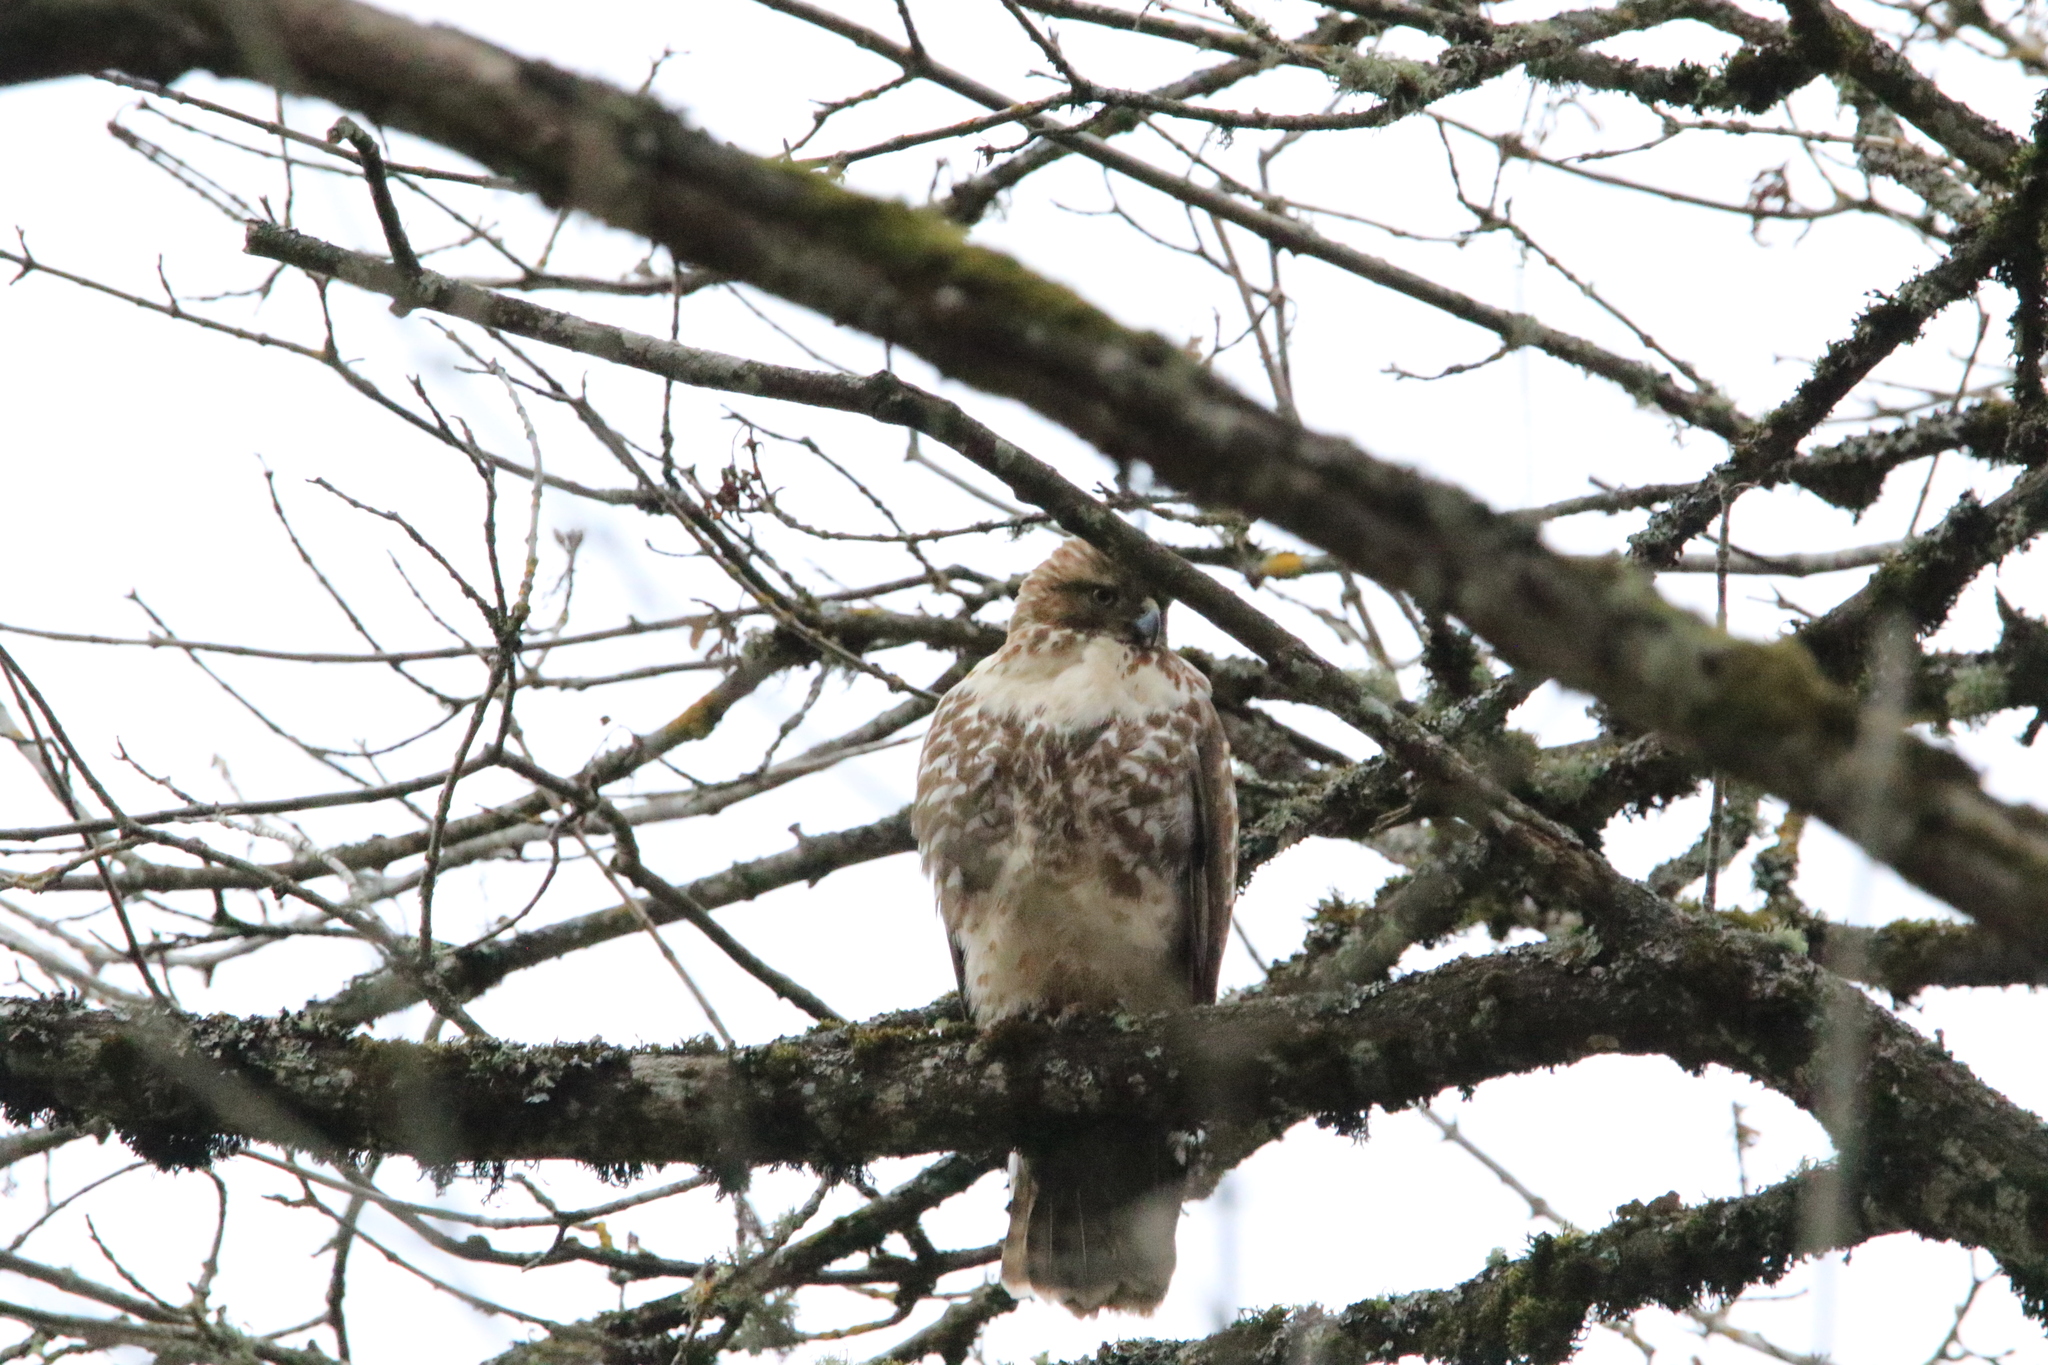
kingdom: Animalia
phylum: Chordata
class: Aves
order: Accipitriformes
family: Accipitridae
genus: Buteo
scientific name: Buteo jamaicensis
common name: Red-tailed hawk
